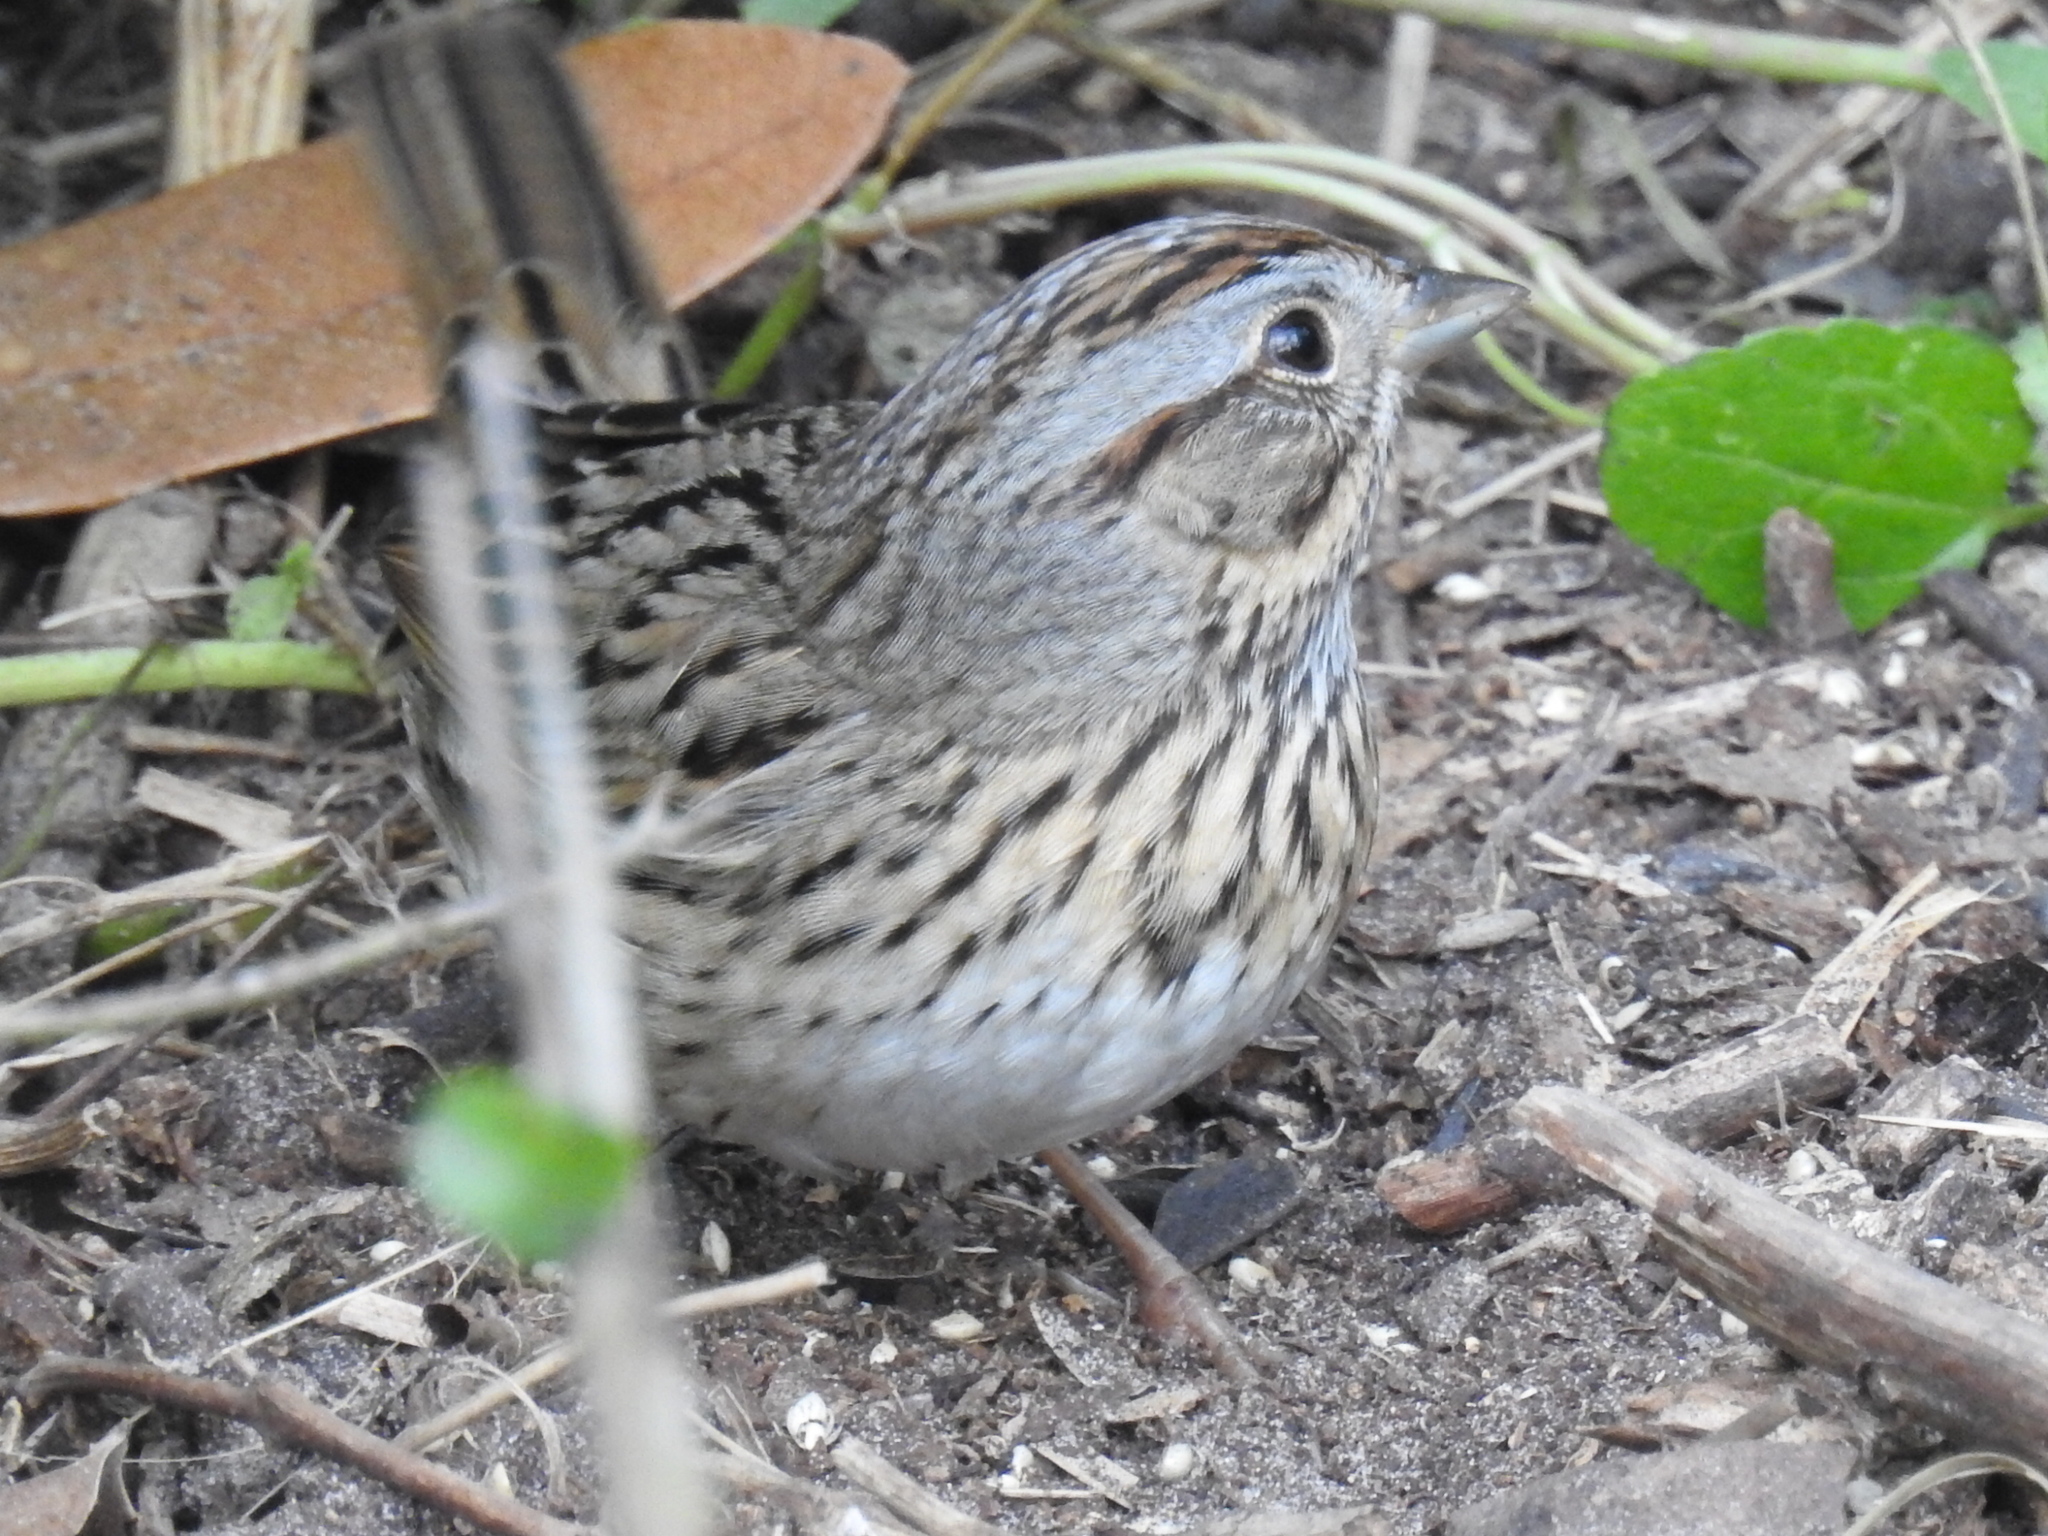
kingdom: Animalia
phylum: Chordata
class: Aves
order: Passeriformes
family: Passerellidae
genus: Melospiza
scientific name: Melospiza lincolnii
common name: Lincoln's sparrow
